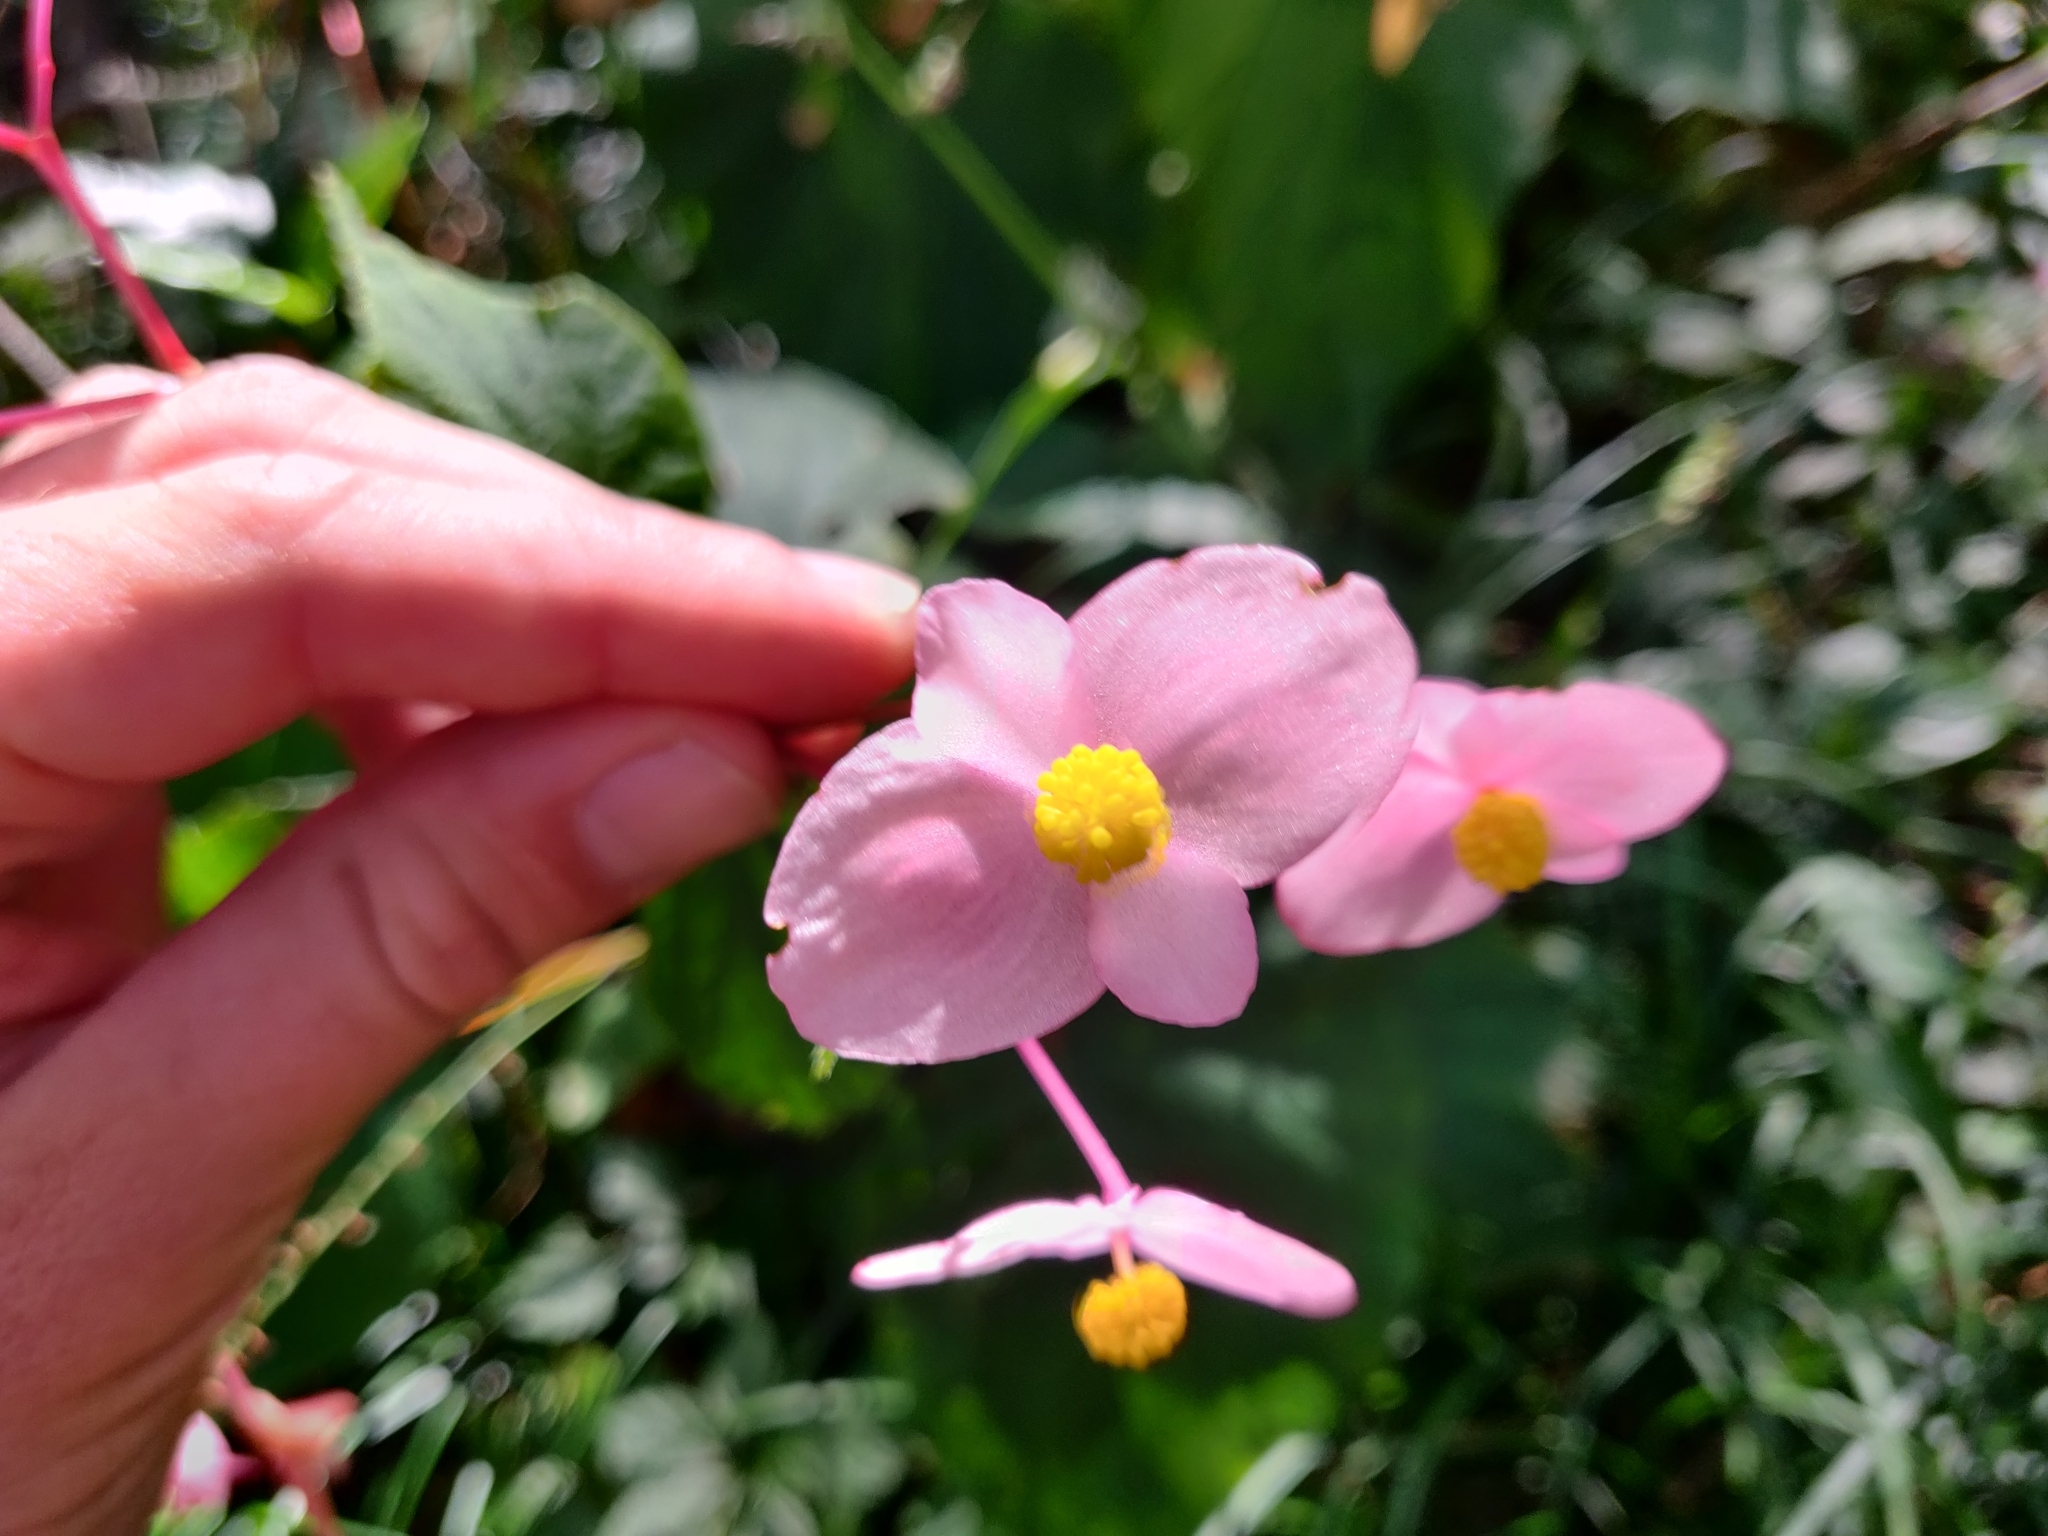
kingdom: Plantae
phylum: Tracheophyta
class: Magnoliopsida
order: Cucurbitales
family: Begoniaceae
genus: Begonia
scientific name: Begonia grandis
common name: Hardy begonia
